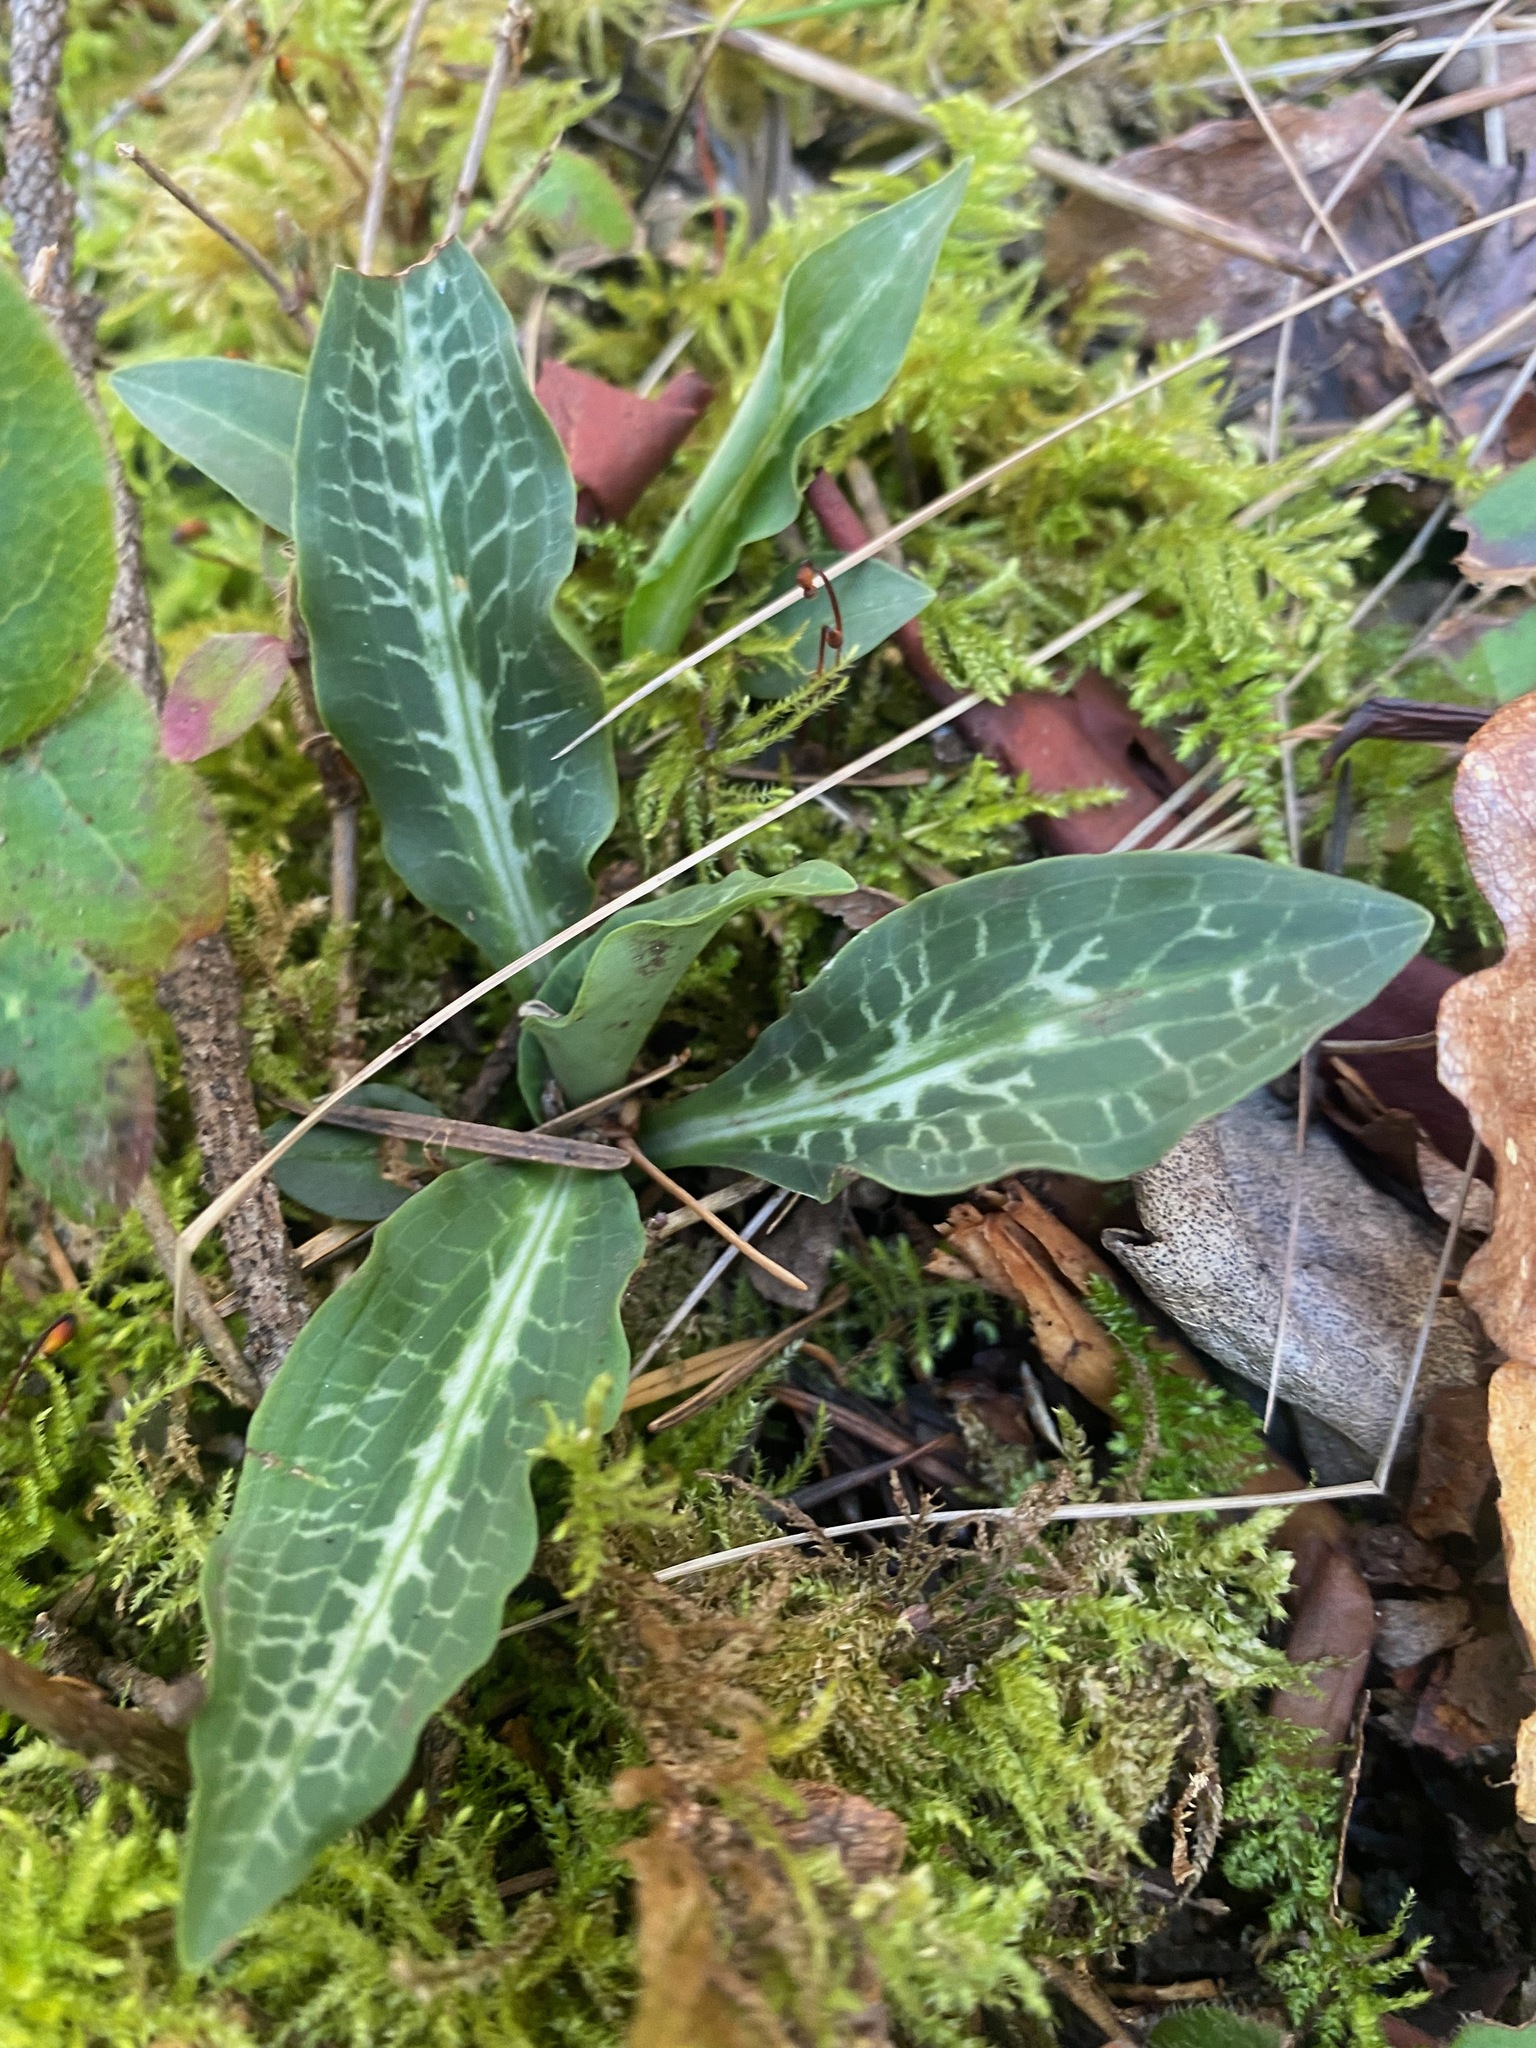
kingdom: Plantae
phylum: Tracheophyta
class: Liliopsida
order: Asparagales
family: Orchidaceae
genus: Goodyera
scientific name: Goodyera oblongifolia
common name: Giant rattlesnake-plantain
